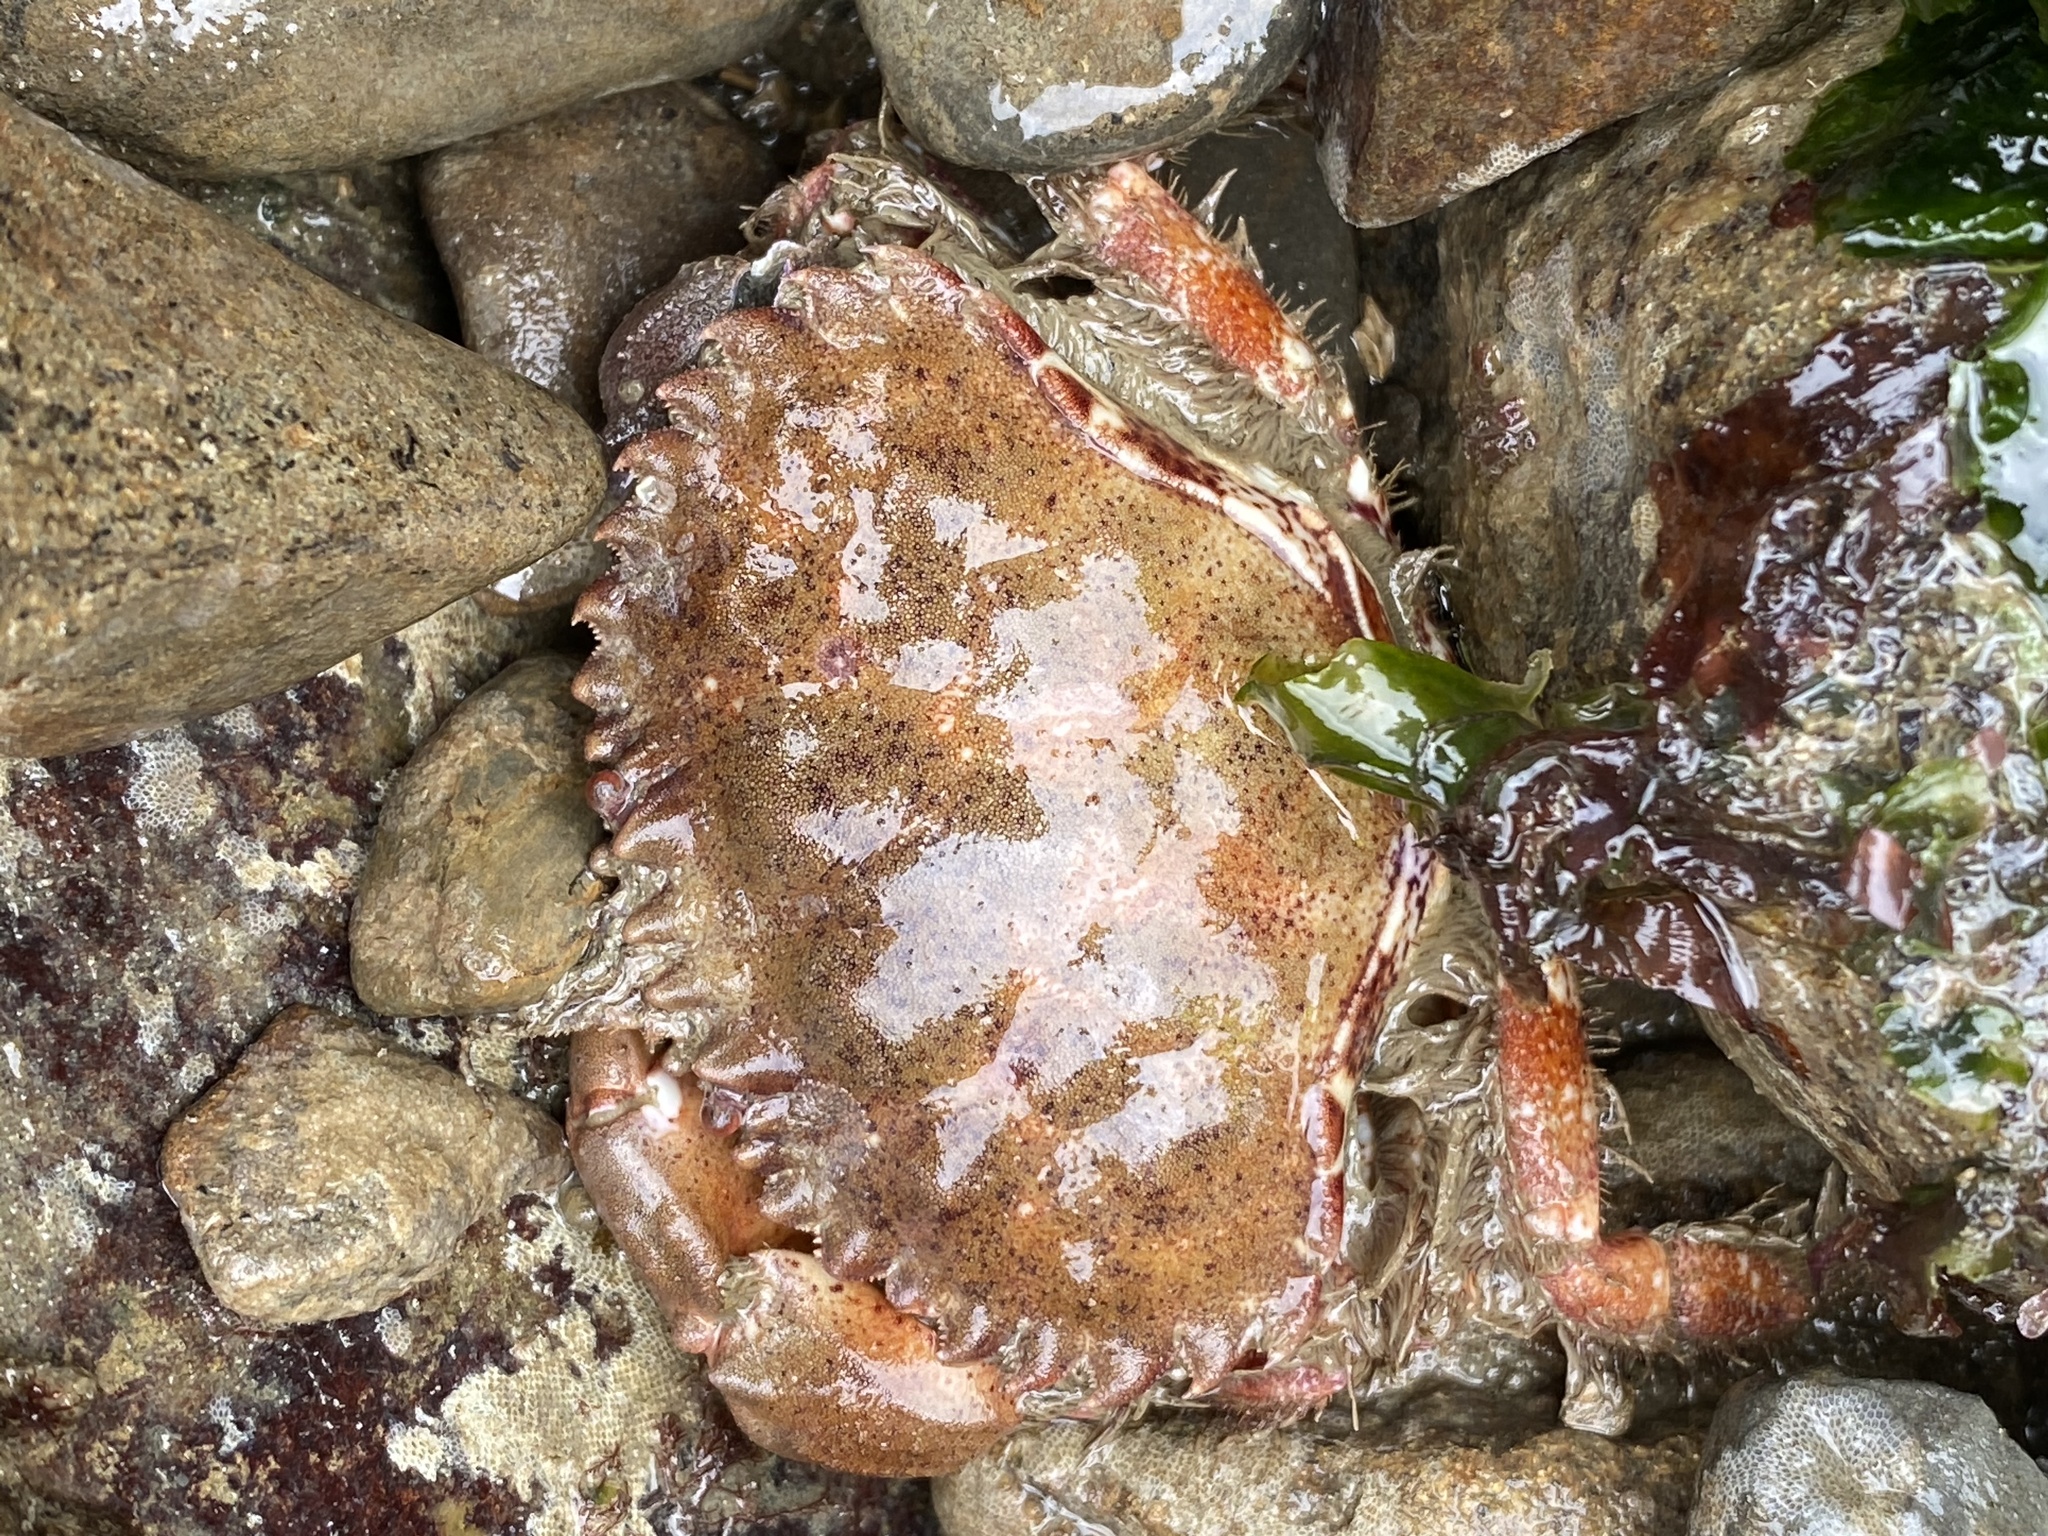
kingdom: Animalia
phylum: Arthropoda
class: Malacostraca
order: Decapoda
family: Cancridae
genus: Romaleon
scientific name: Romaleon antennarium
